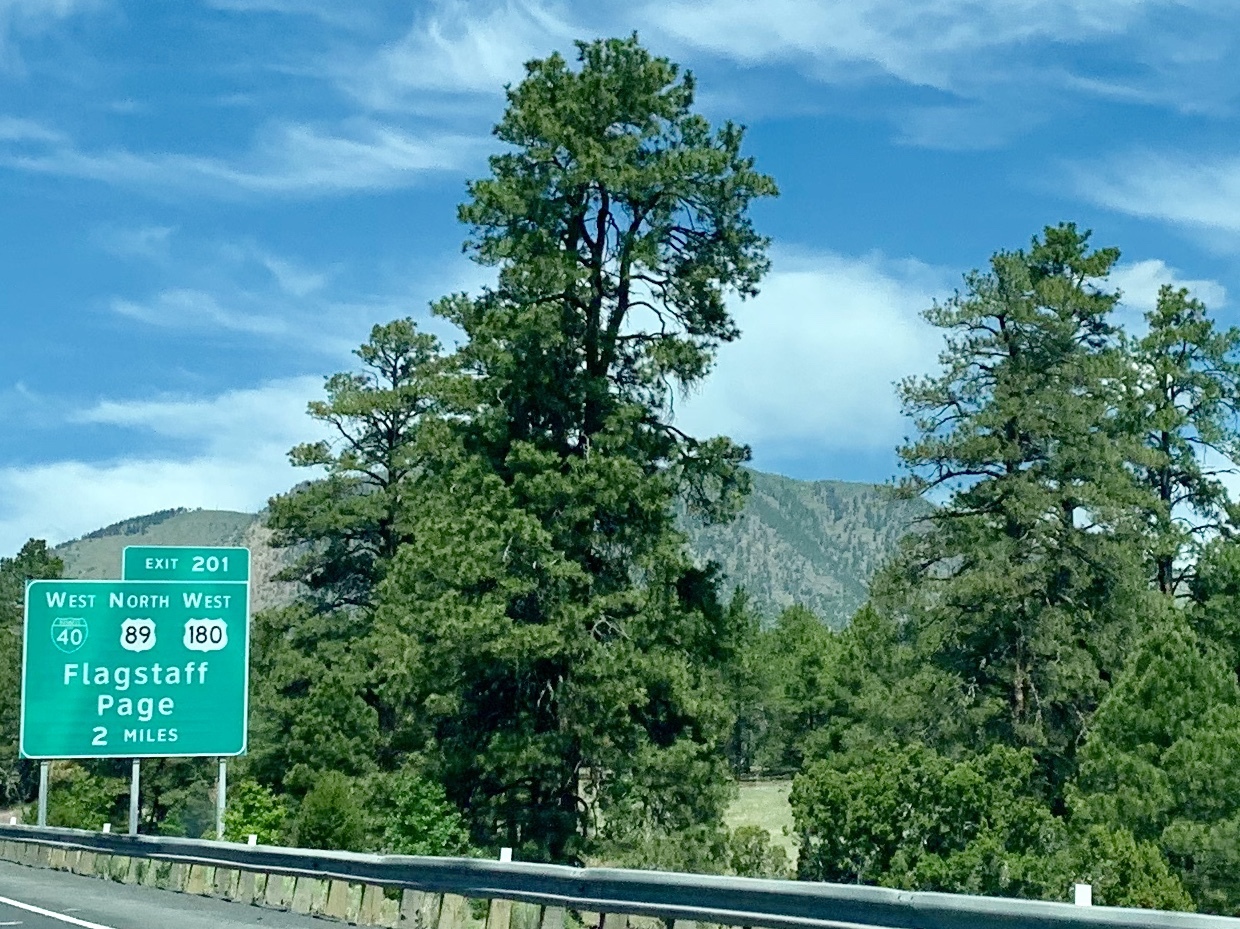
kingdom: Plantae
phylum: Tracheophyta
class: Pinopsida
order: Pinales
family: Pinaceae
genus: Pinus
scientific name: Pinus ponderosa
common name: Western yellow-pine
